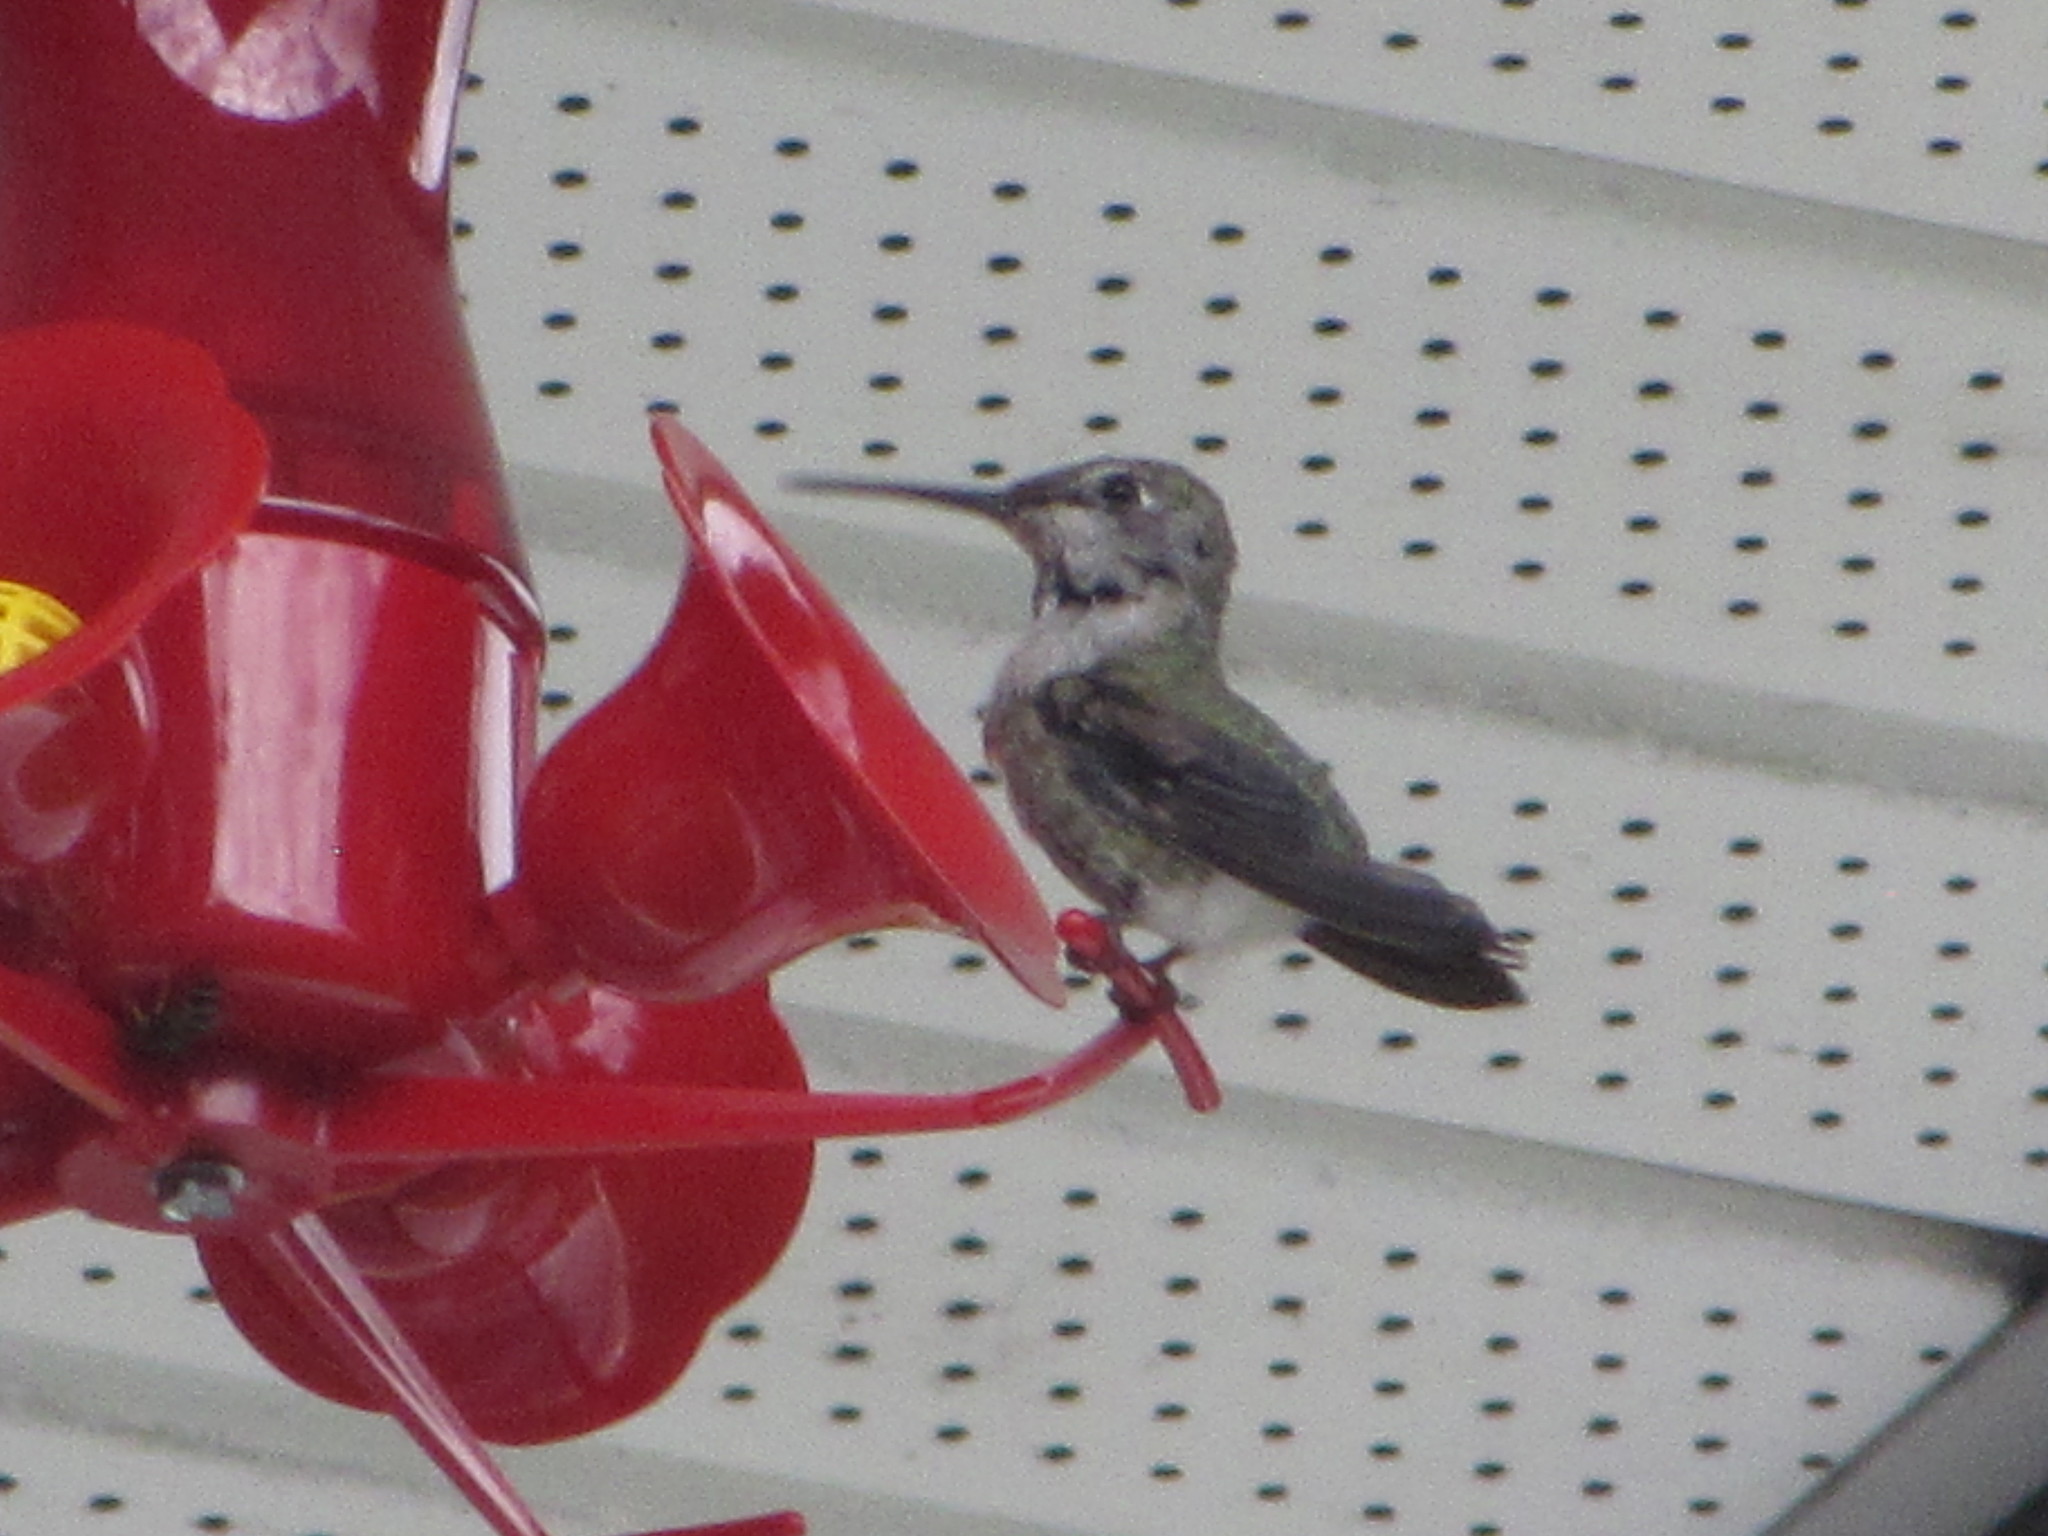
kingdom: Animalia
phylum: Chordata
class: Aves
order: Apodiformes
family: Trochilidae
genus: Calypte
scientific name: Calypte anna
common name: Anna's hummingbird
